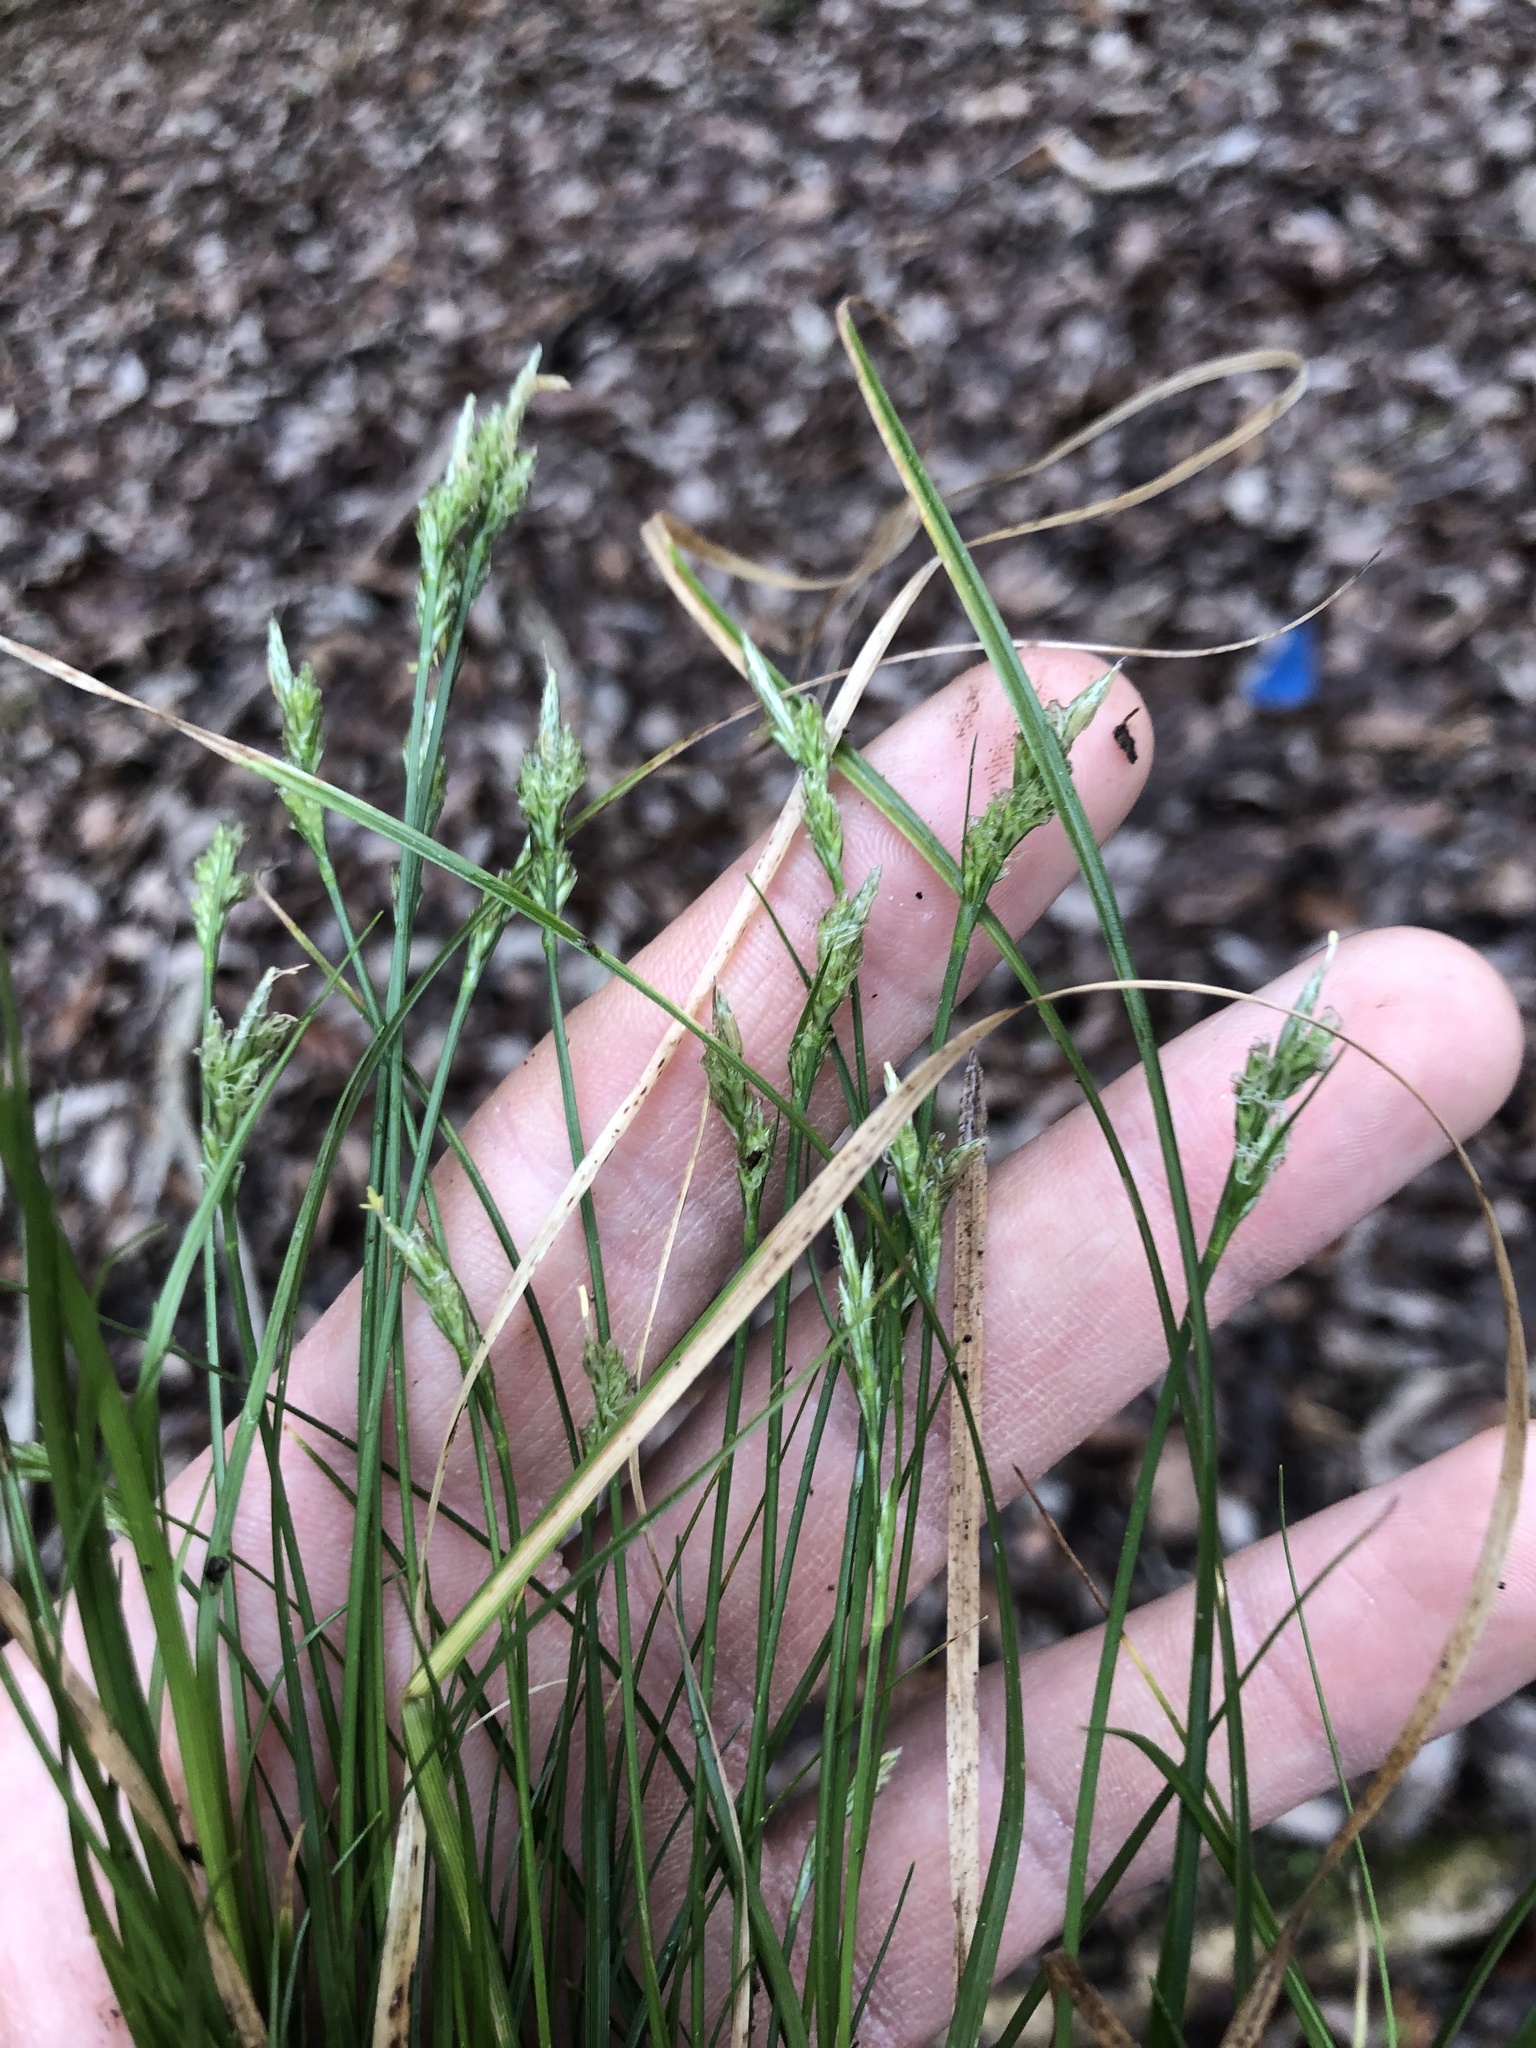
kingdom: Plantae
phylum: Tracheophyta
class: Liliopsida
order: Poales
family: Cyperaceae
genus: Carex
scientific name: Carex albicans
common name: Bellow-beaked sedge
